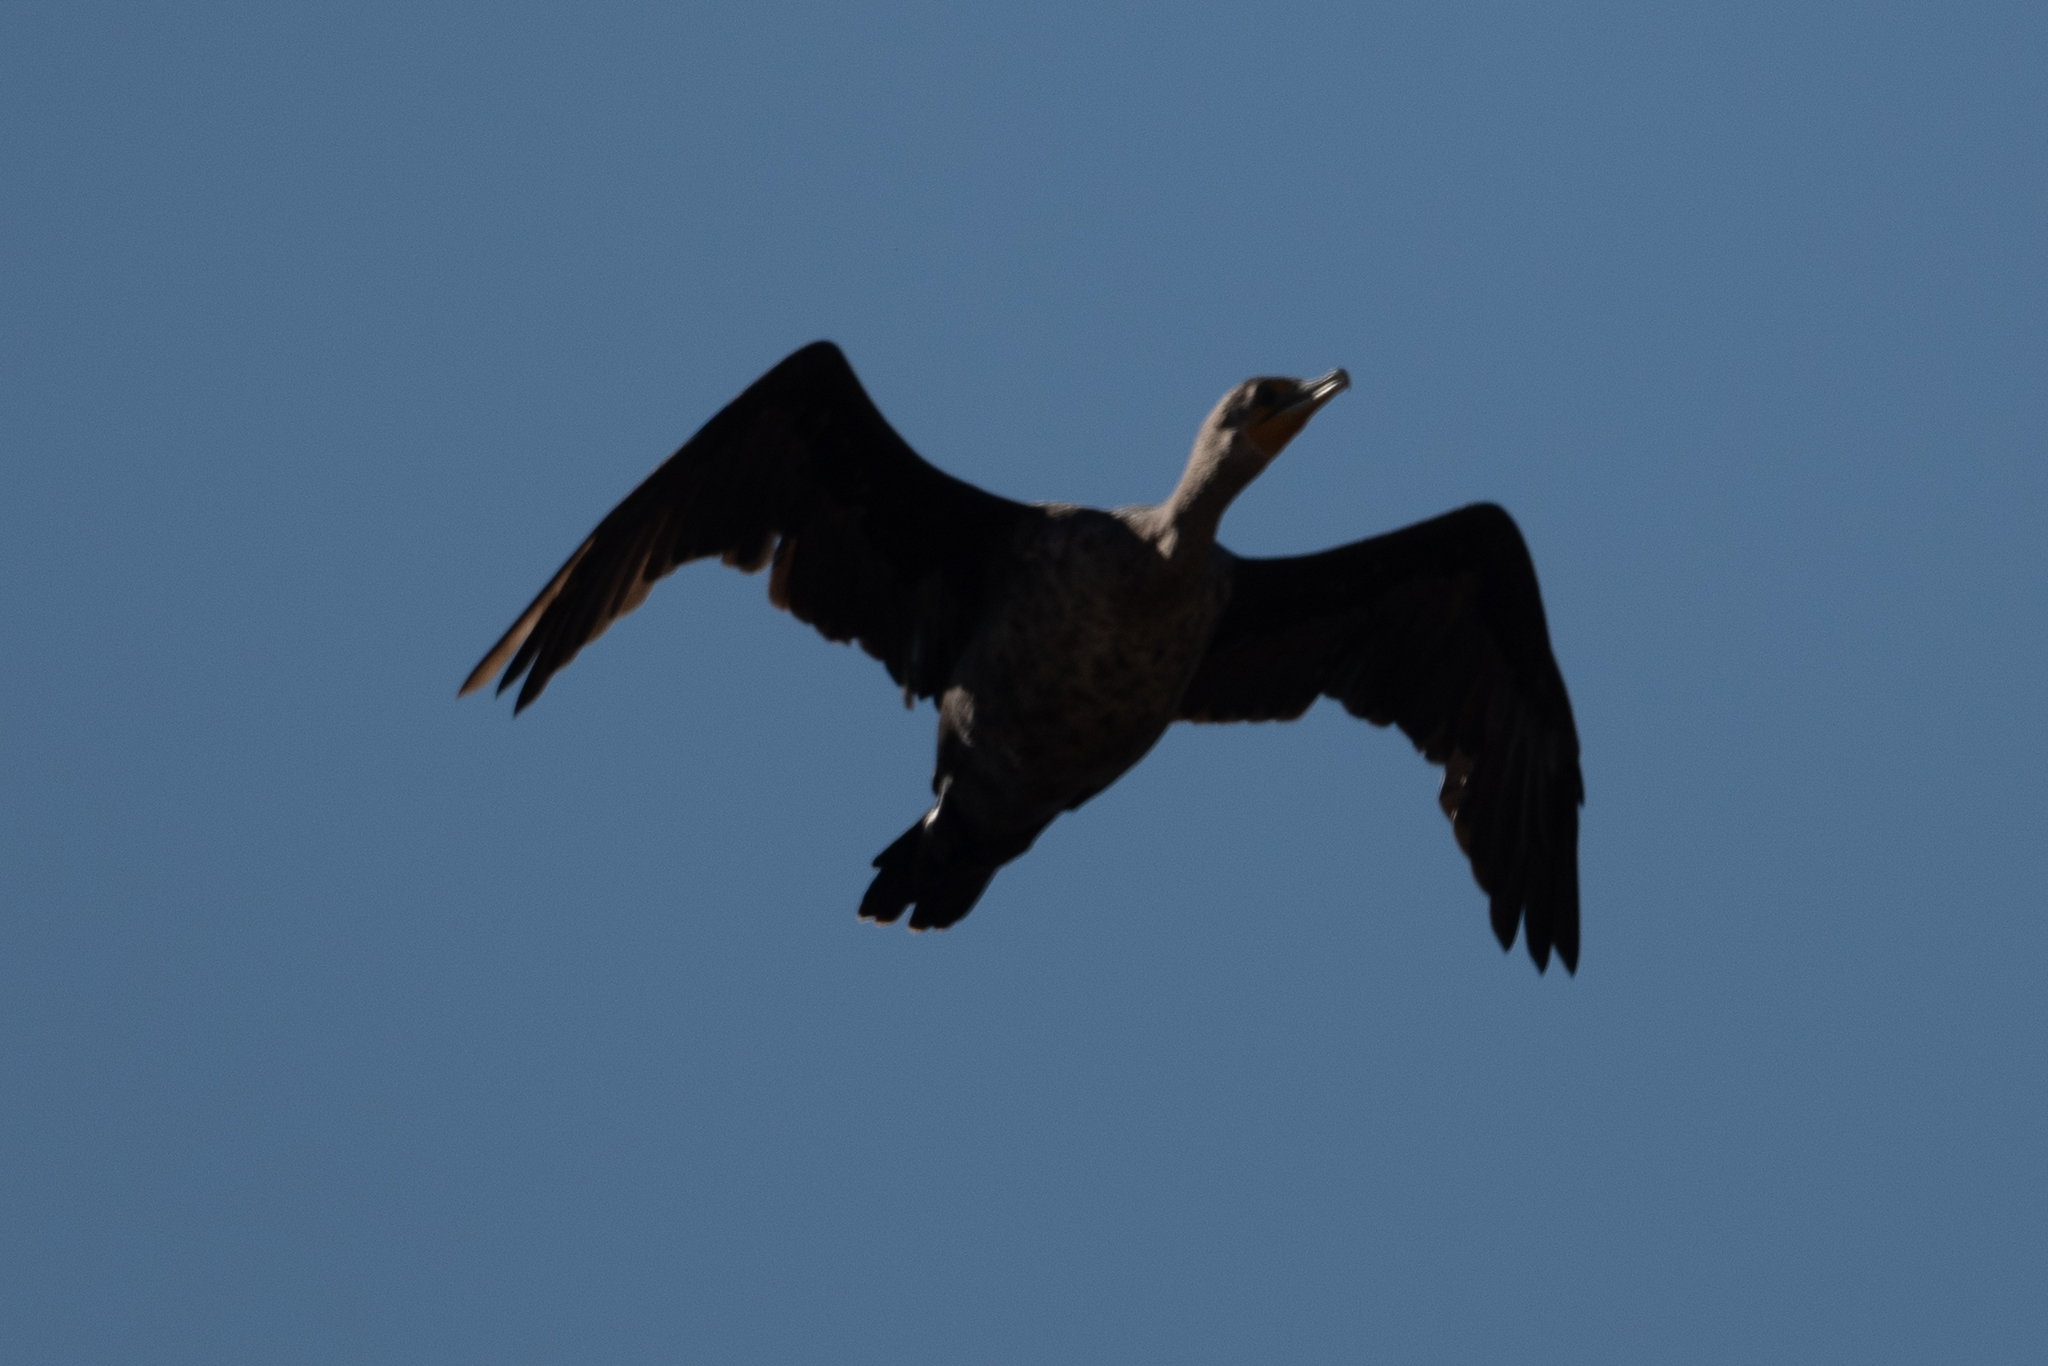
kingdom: Animalia
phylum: Chordata
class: Aves
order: Suliformes
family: Phalacrocoracidae
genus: Phalacrocorax
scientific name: Phalacrocorax auritus
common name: Double-crested cormorant
